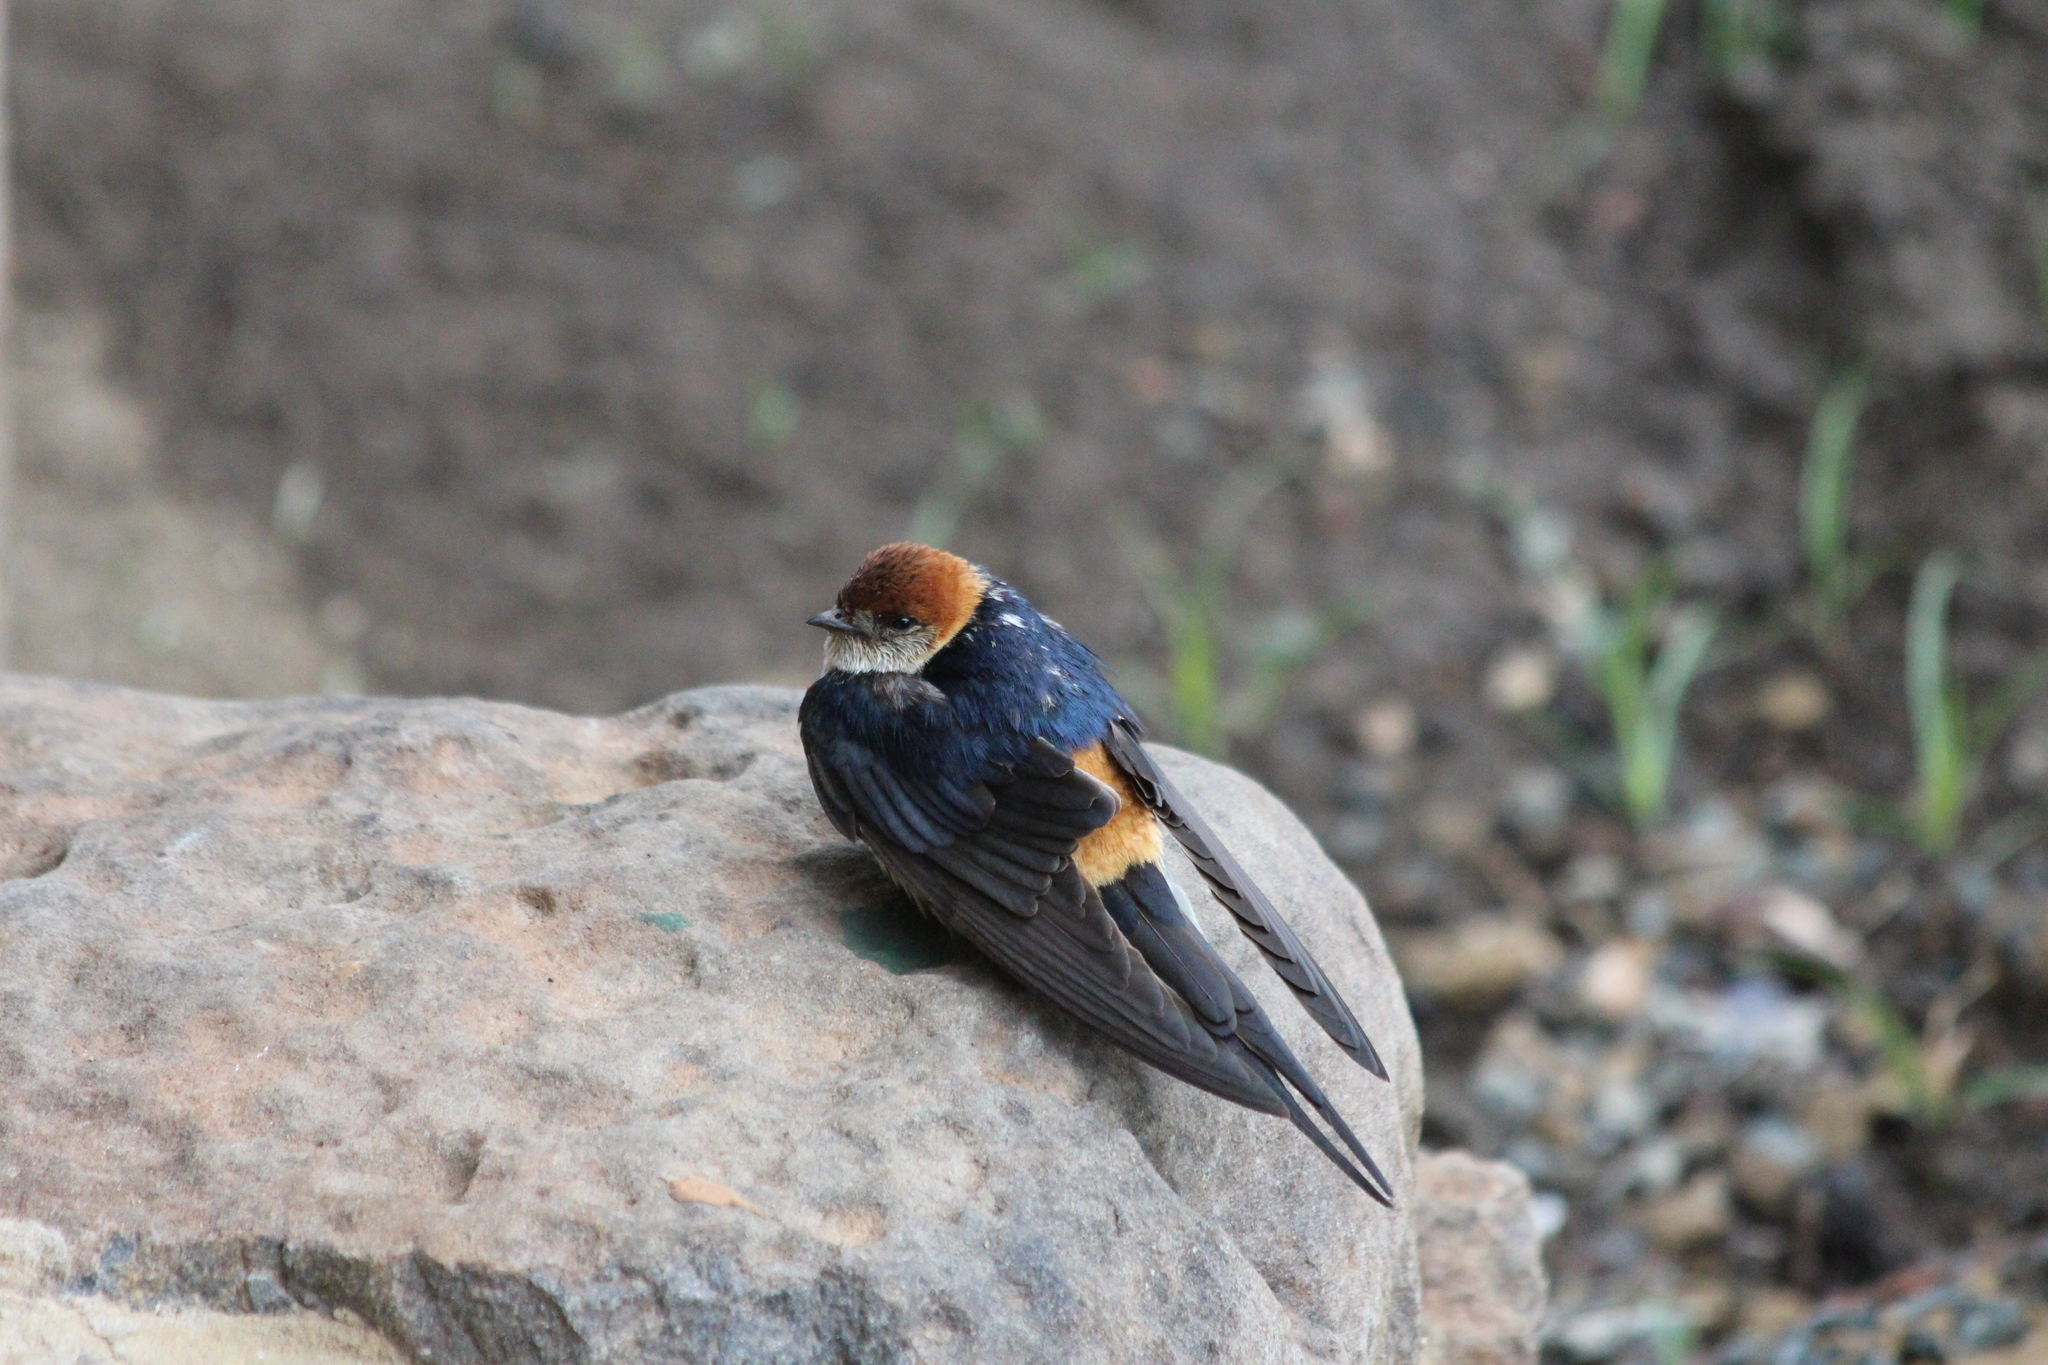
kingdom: Animalia
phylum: Chordata
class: Aves
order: Passeriformes
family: Hirundinidae
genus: Cecropis
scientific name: Cecropis cucullata
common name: Greater striped-swallow
